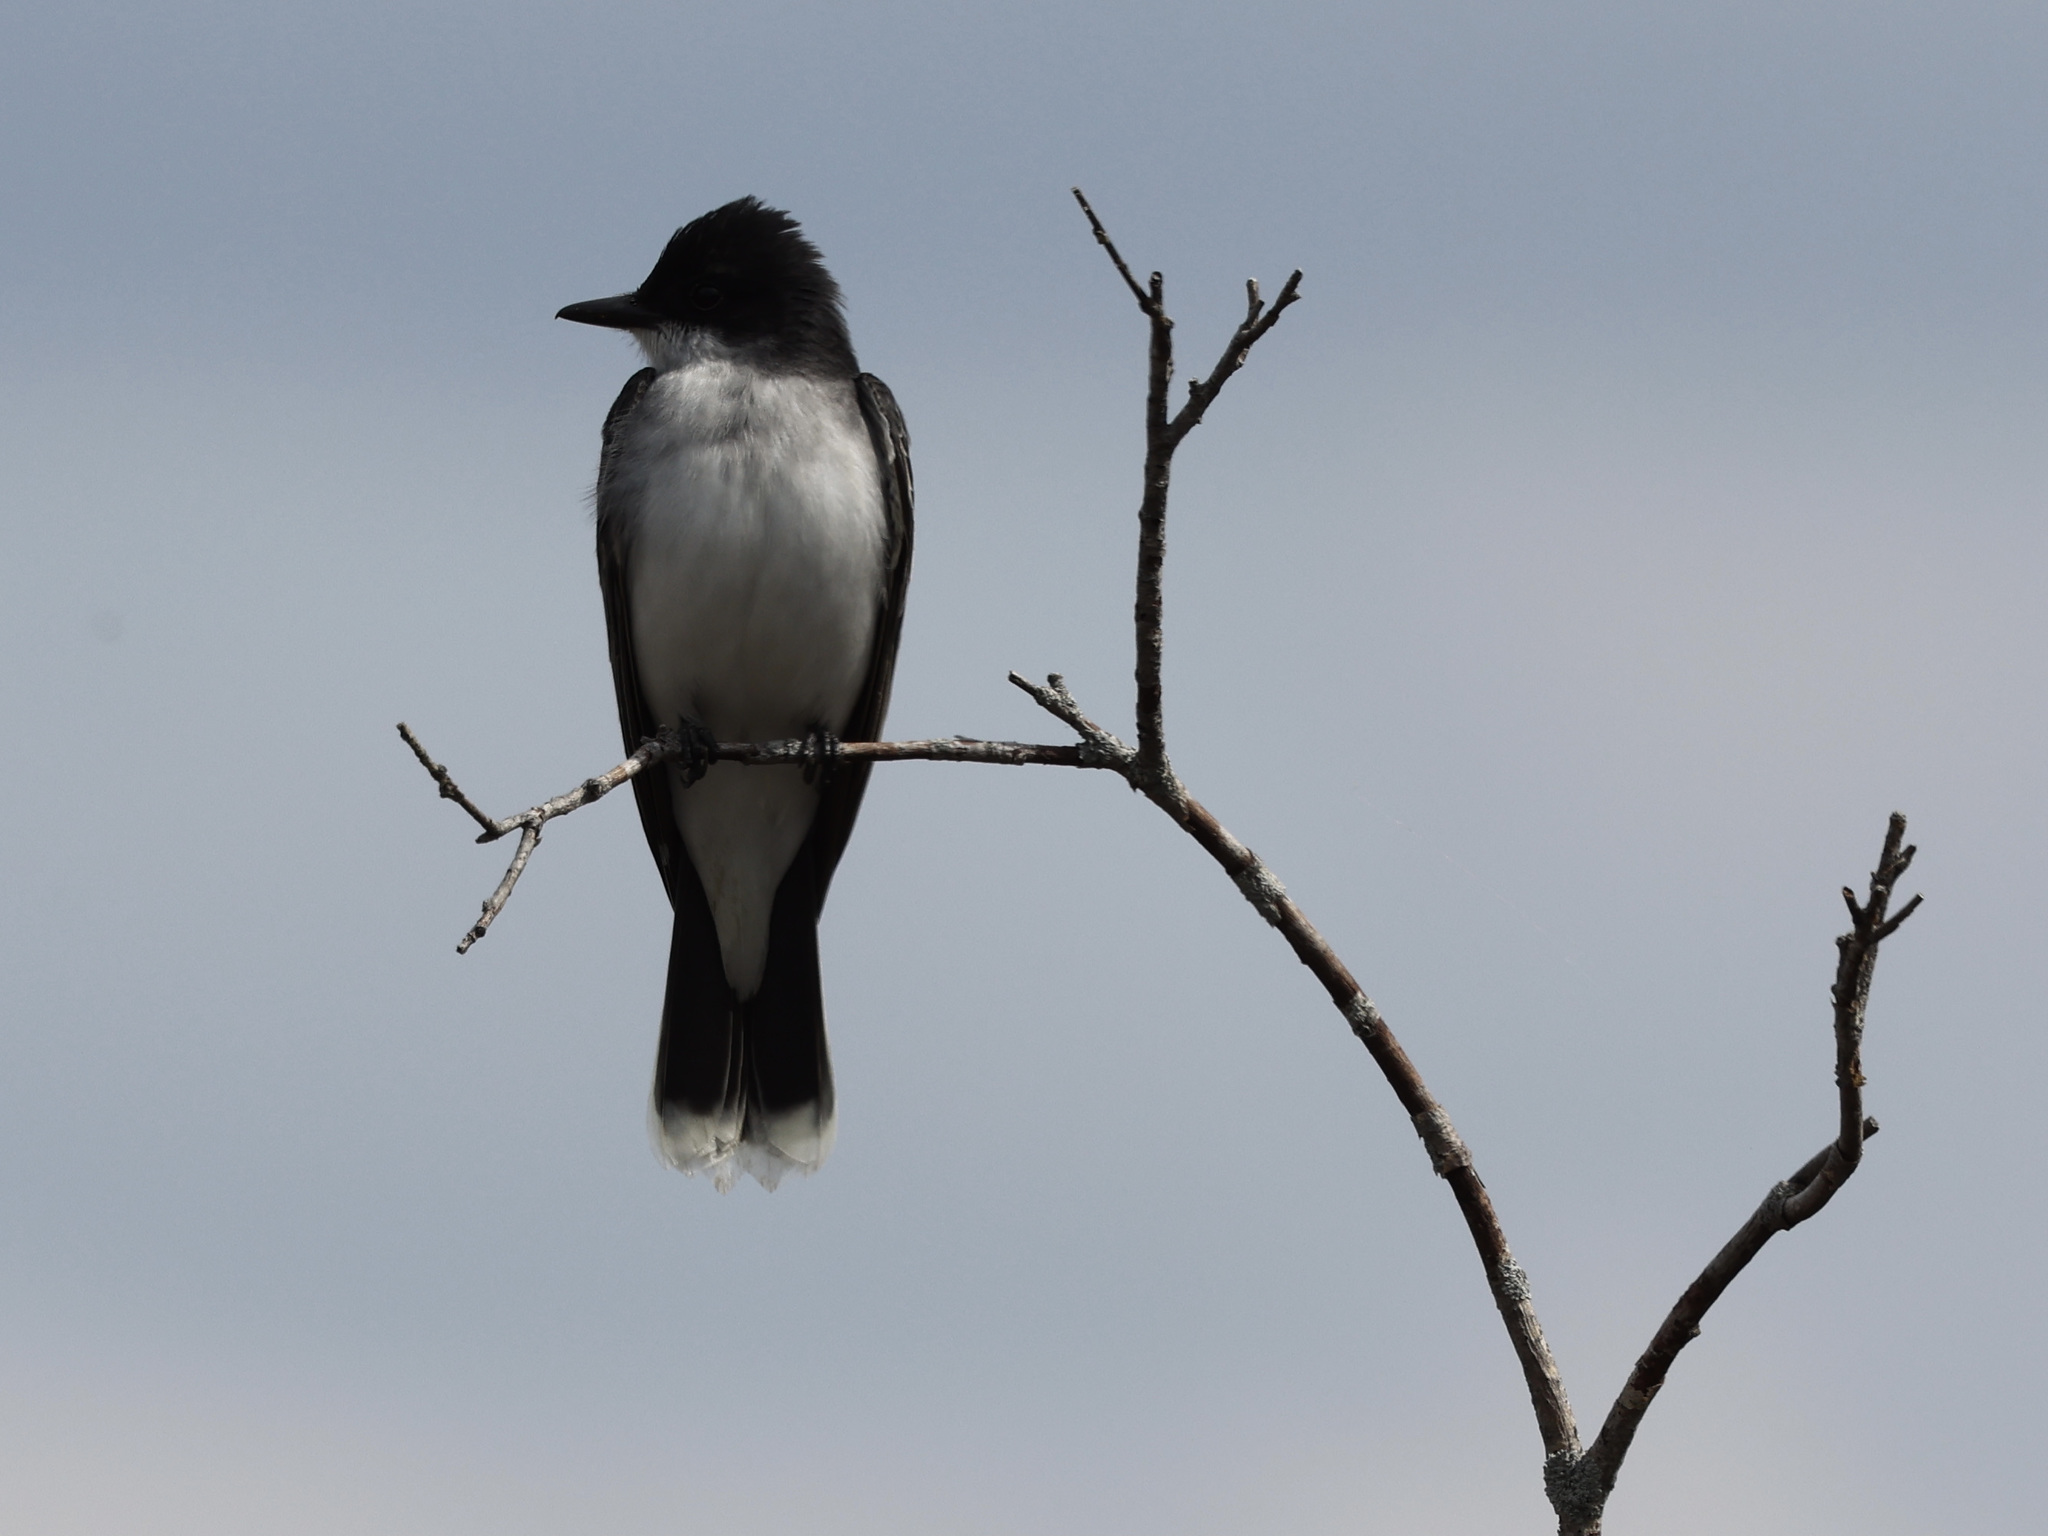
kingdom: Animalia
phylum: Chordata
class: Aves
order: Passeriformes
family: Tyrannidae
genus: Tyrannus
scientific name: Tyrannus tyrannus
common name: Eastern kingbird
